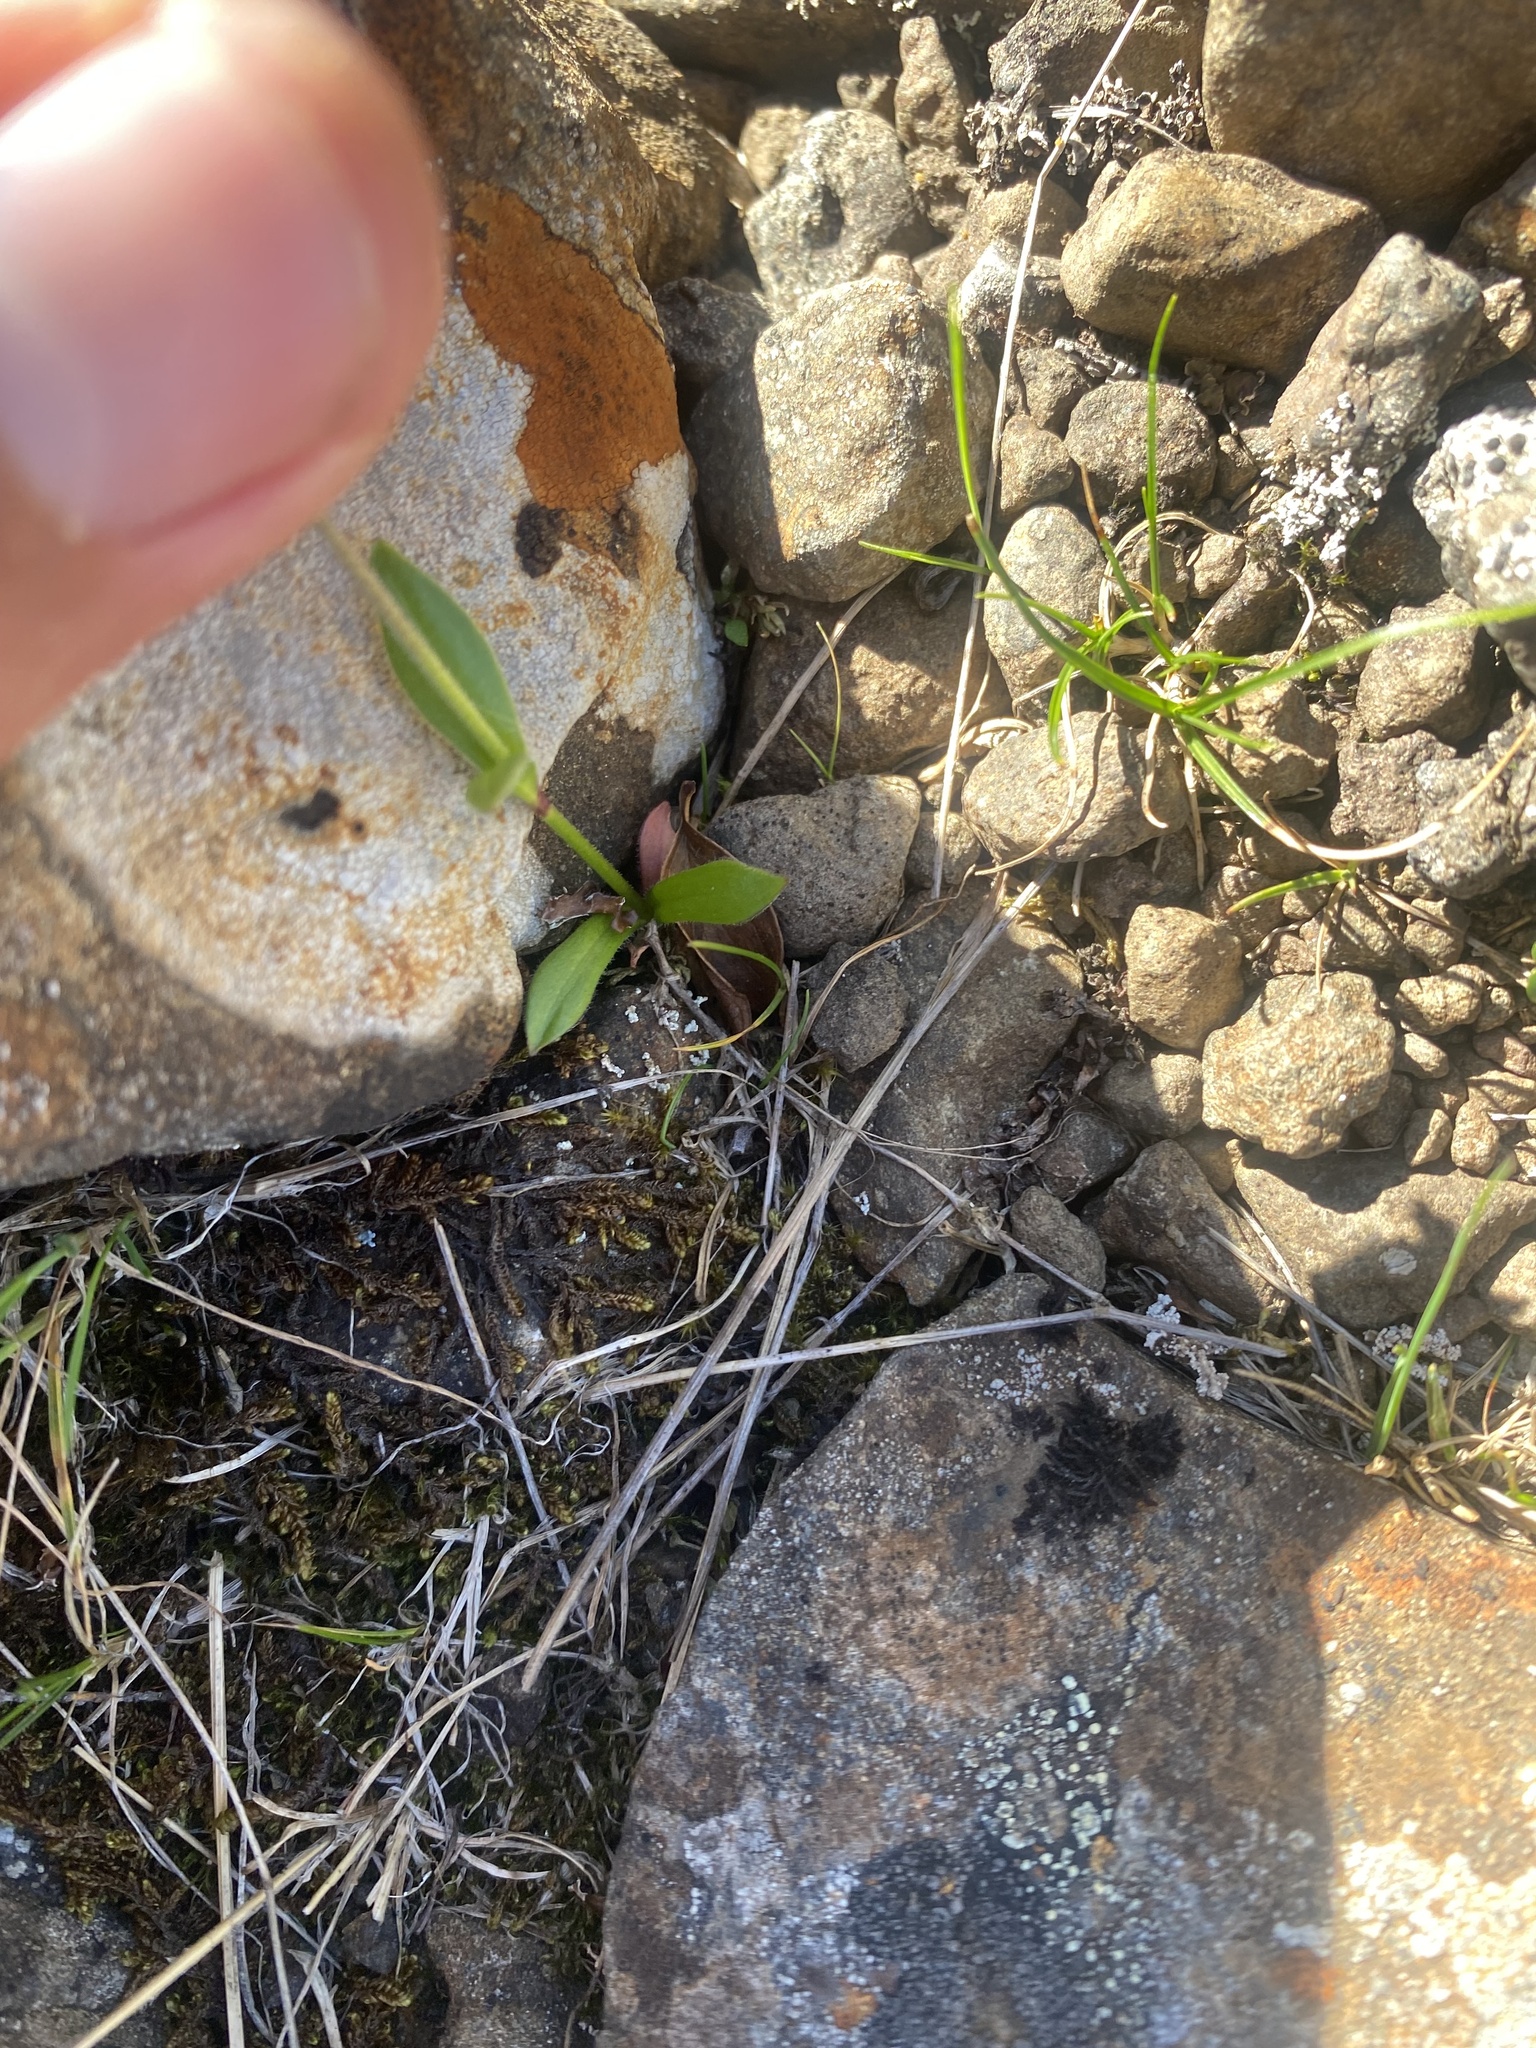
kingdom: Plantae
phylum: Tracheophyta
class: Magnoliopsida
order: Caryophyllales
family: Caryophyllaceae
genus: Silene
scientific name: Silene wahlbergella
